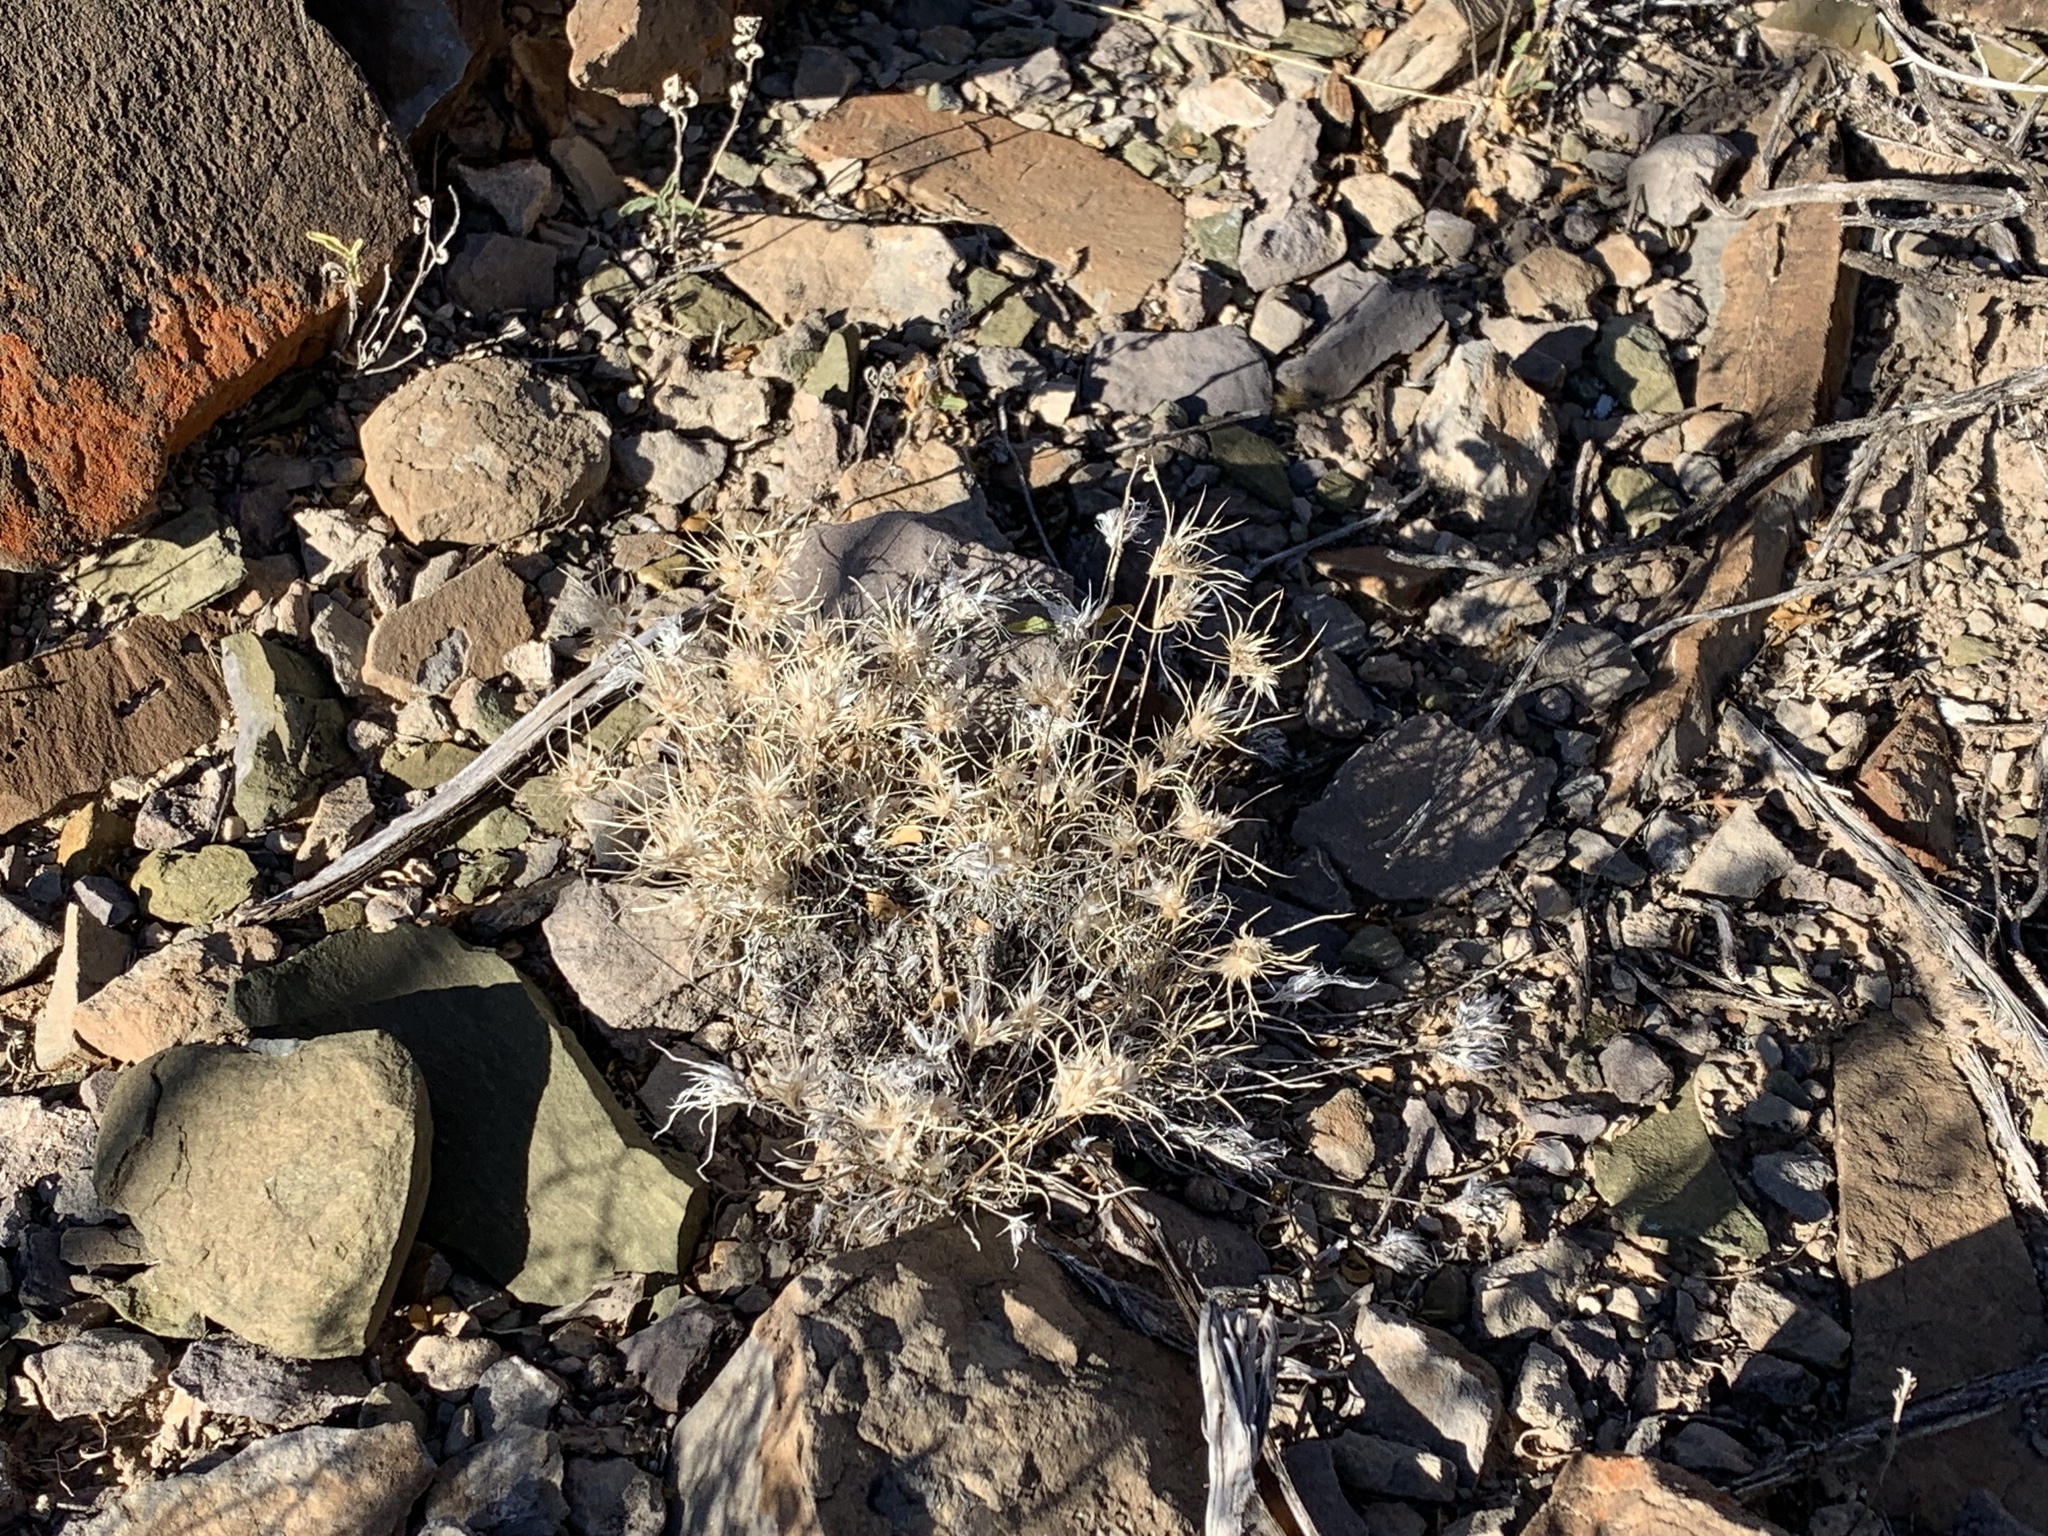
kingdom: Plantae
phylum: Tracheophyta
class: Liliopsida
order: Poales
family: Poaceae
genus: Dasyochloa
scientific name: Dasyochloa pulchella
